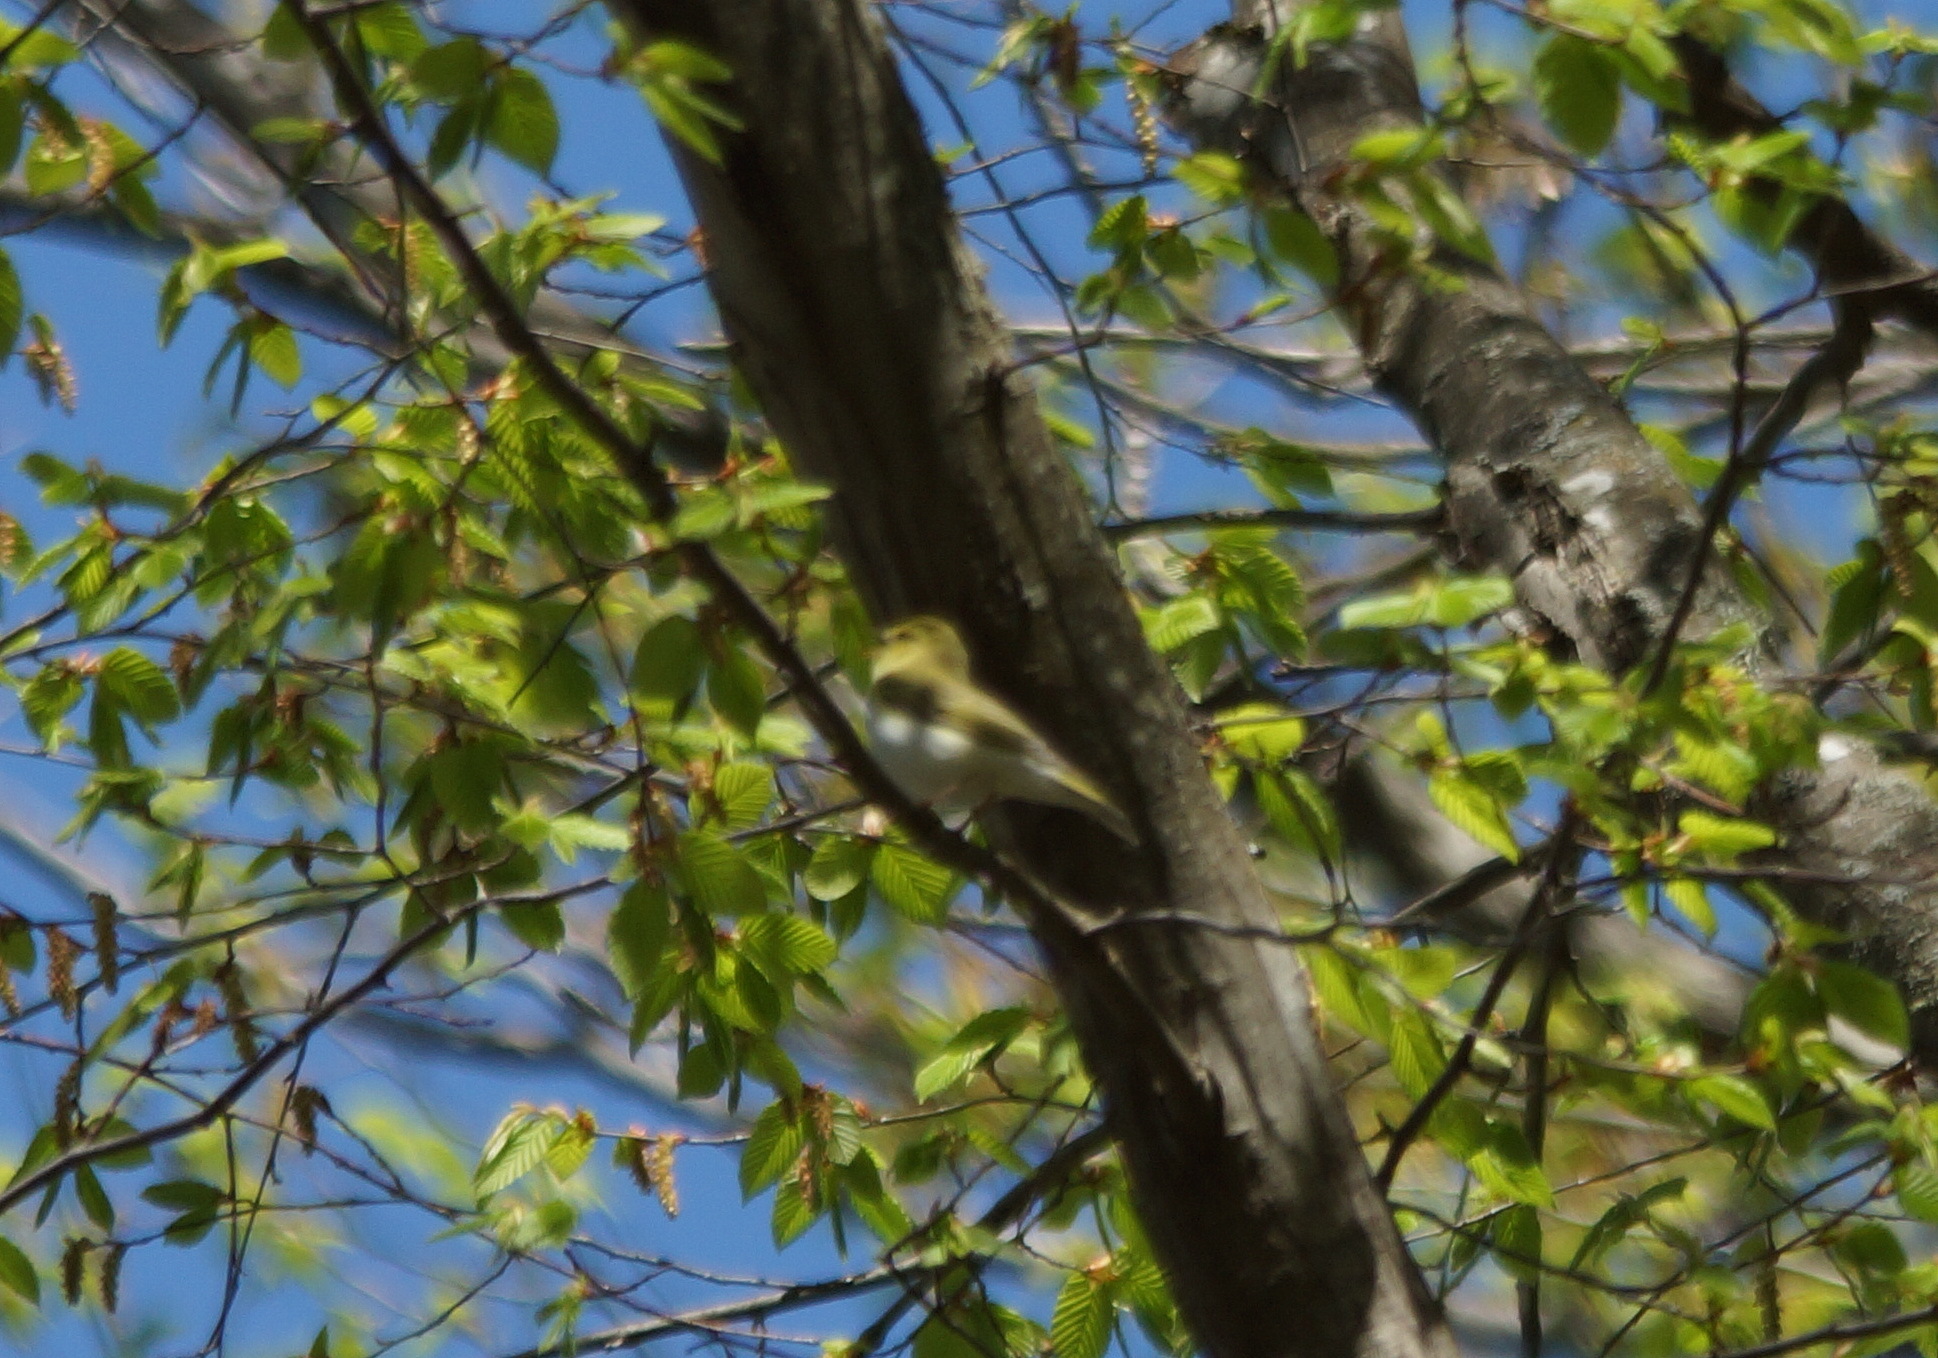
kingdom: Animalia
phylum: Chordata
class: Aves
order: Passeriformes
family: Phylloscopidae
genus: Phylloscopus
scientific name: Phylloscopus sibillatrix
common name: Wood warbler
